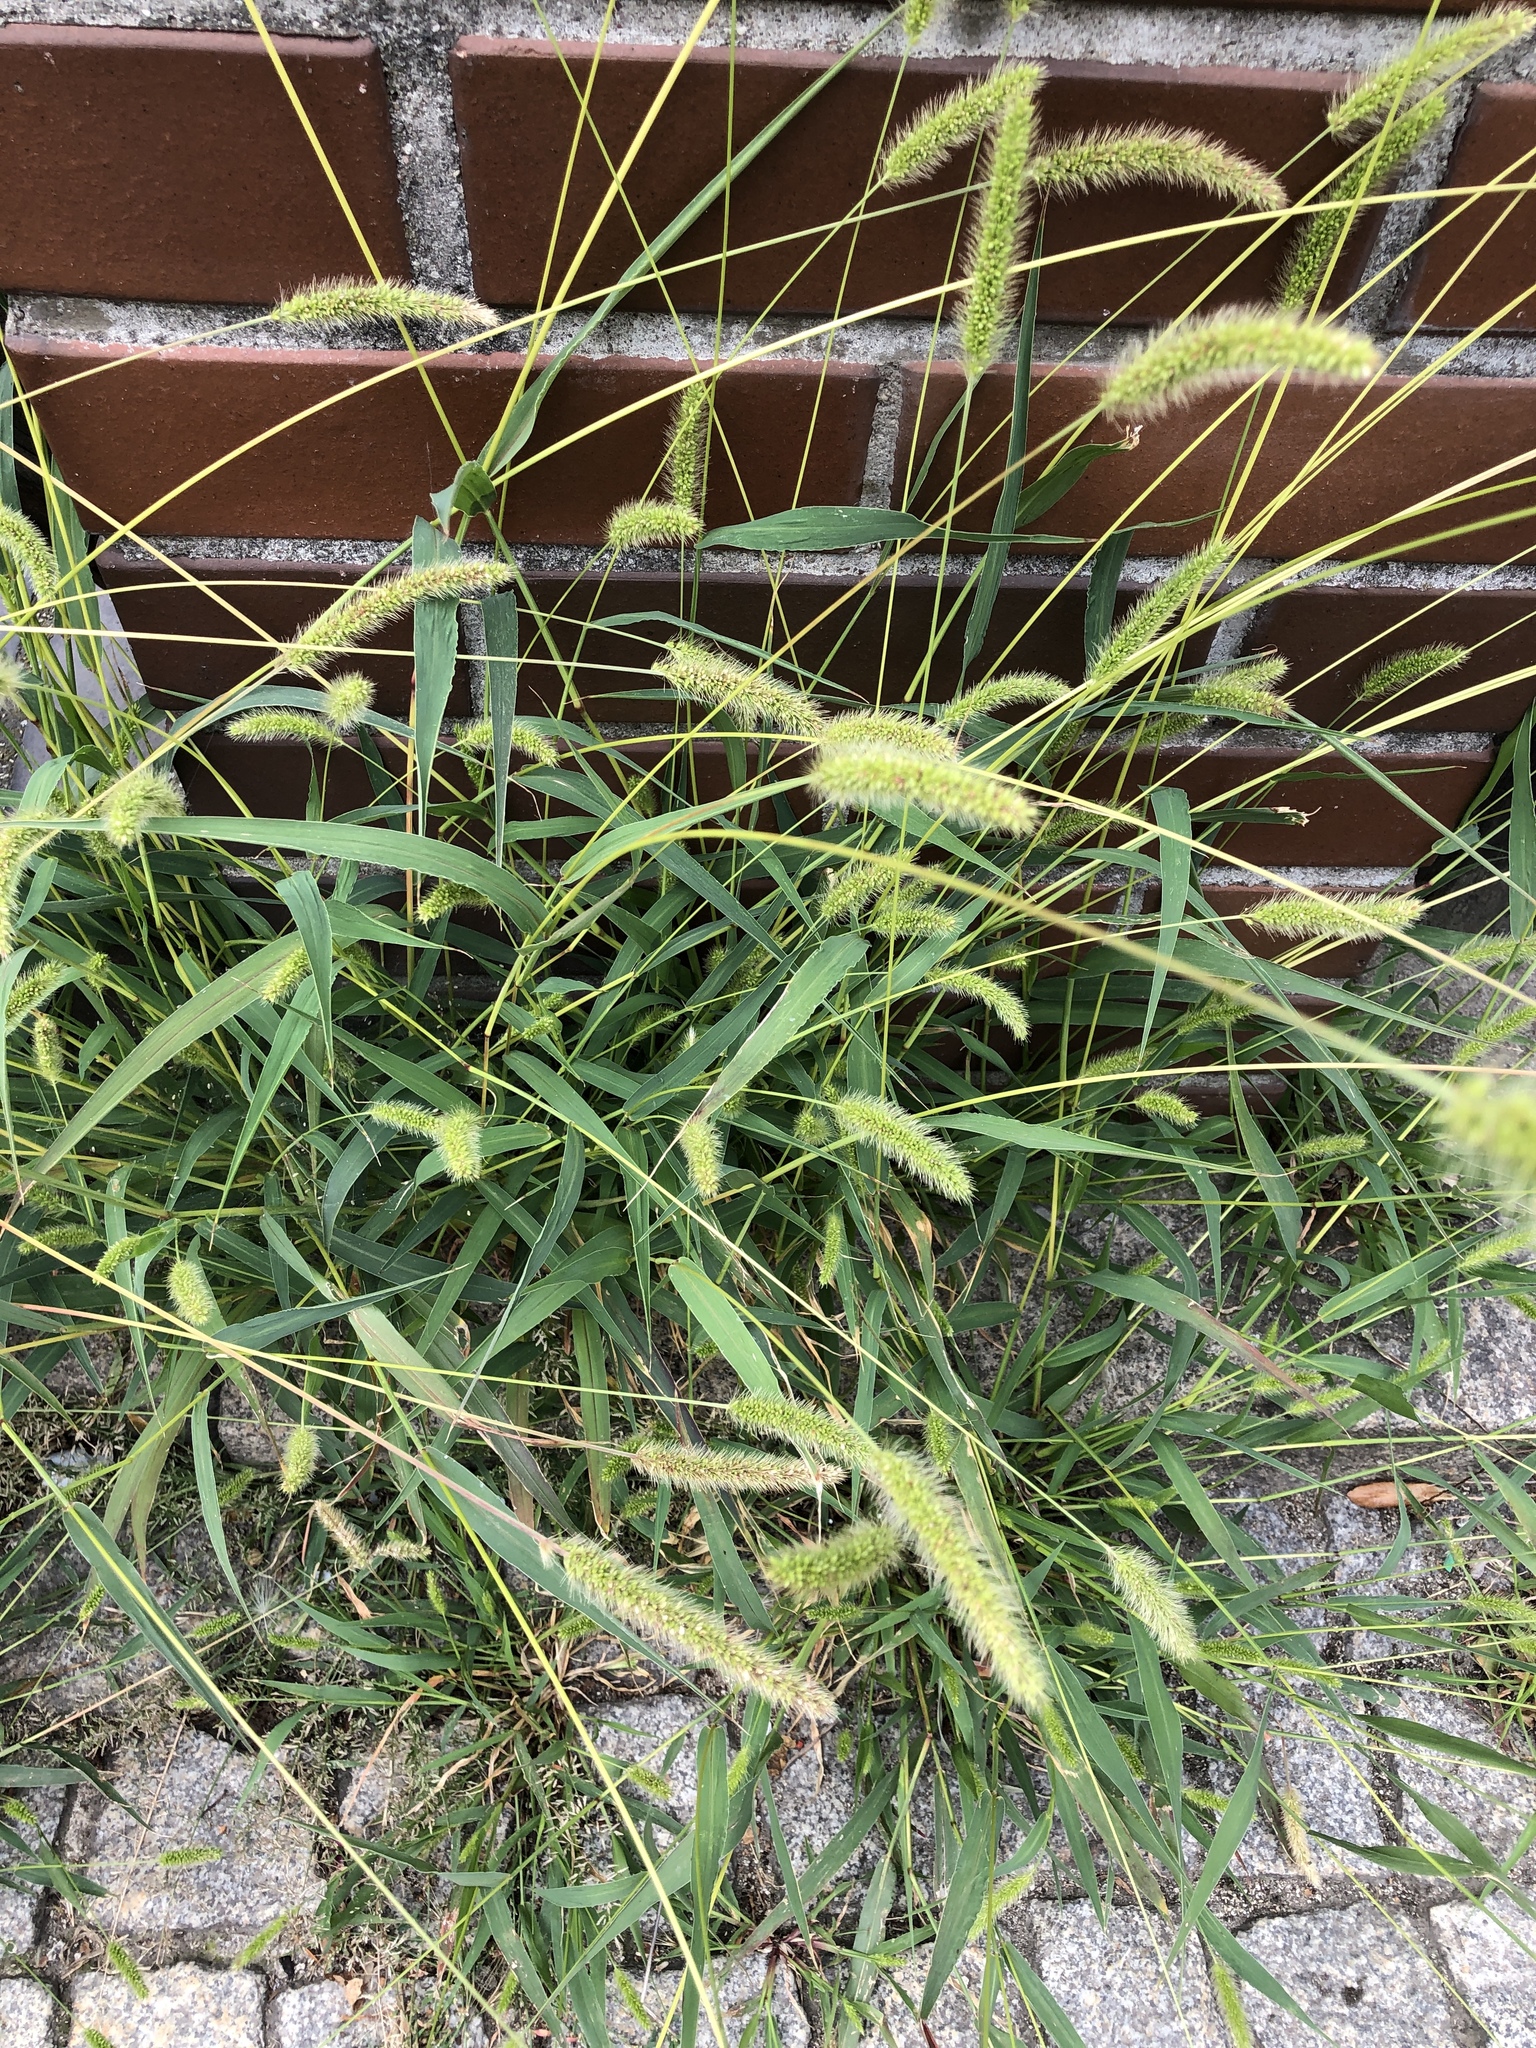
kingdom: Plantae
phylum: Tracheophyta
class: Liliopsida
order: Poales
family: Poaceae
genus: Setaria
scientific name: Setaria viridis
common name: Green bristlegrass
